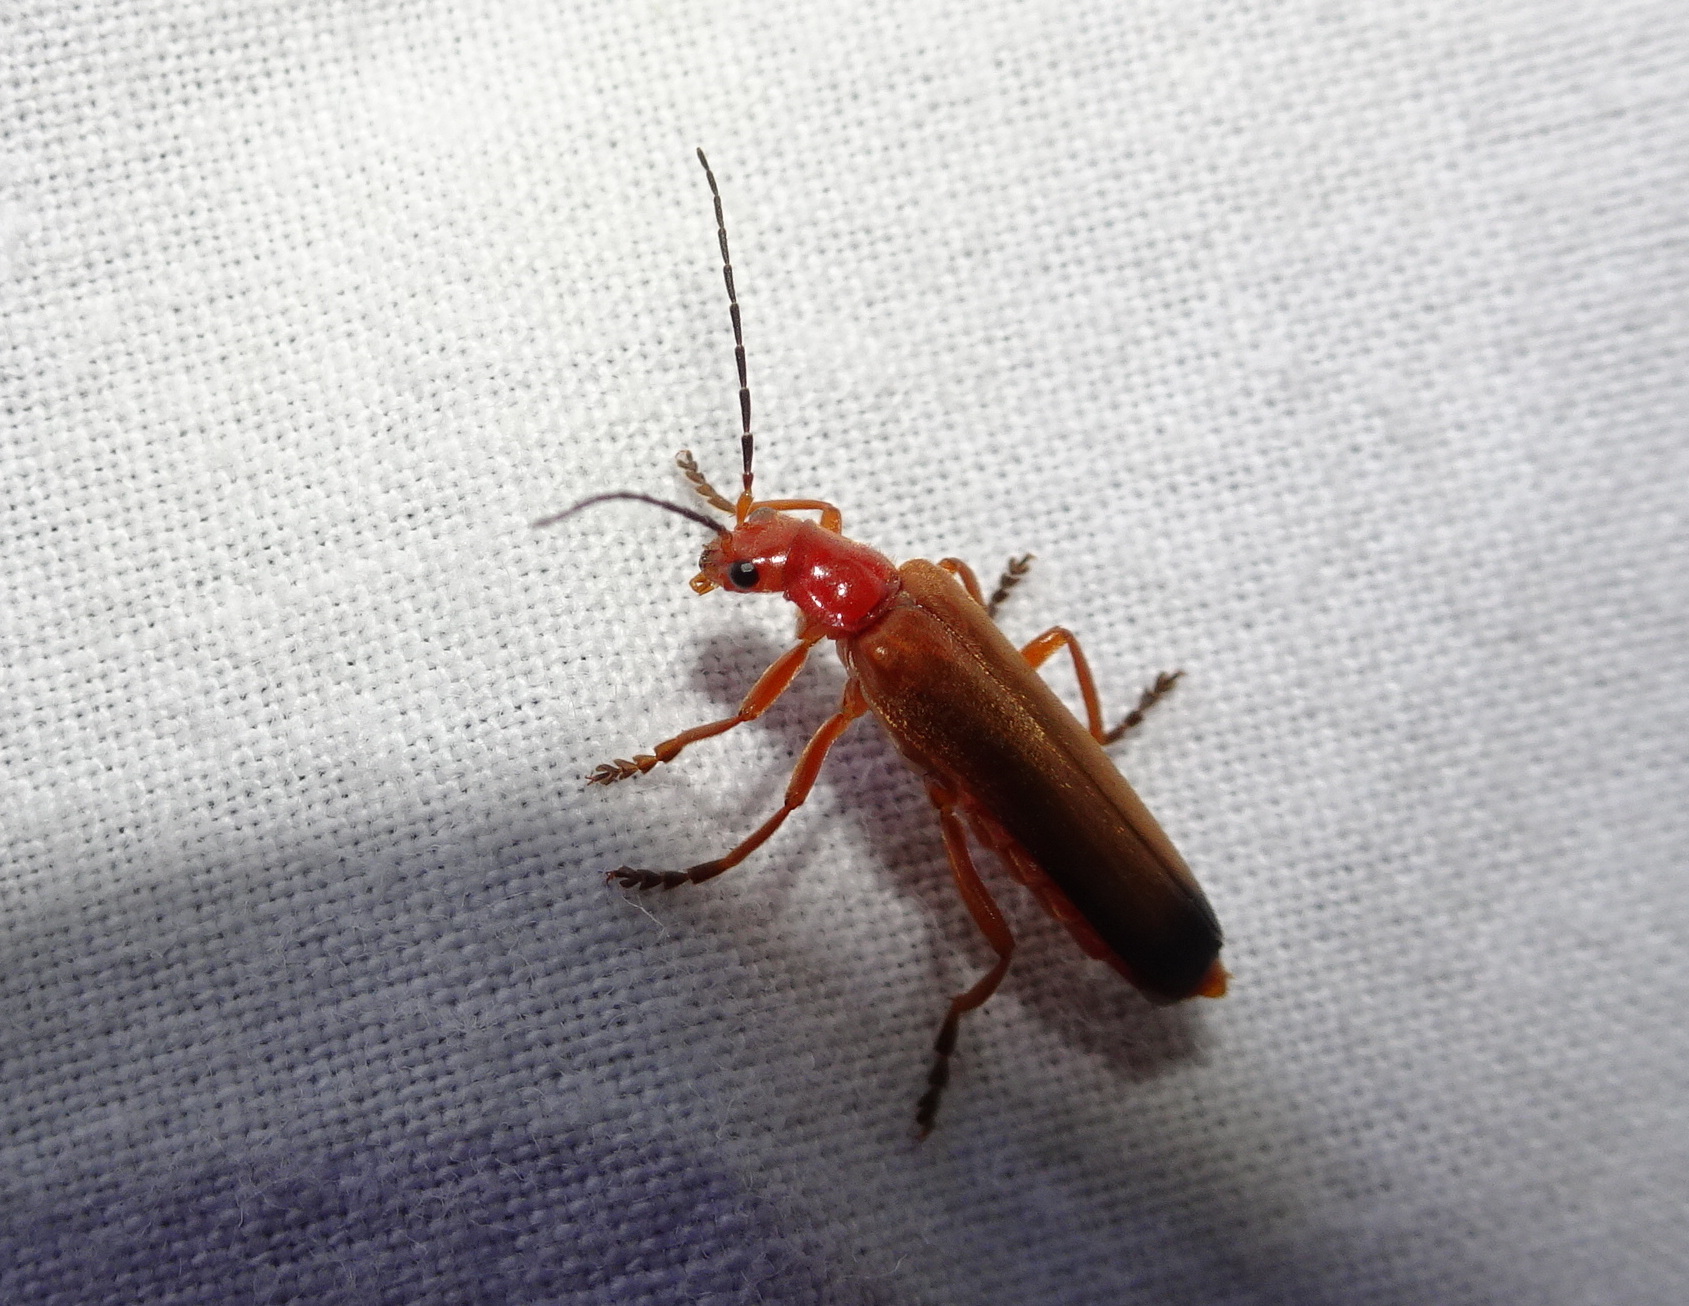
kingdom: Animalia
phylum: Arthropoda
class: Insecta
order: Coleoptera
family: Cantharidae
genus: Ancistronycha
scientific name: Ancistronycha erichsonii
